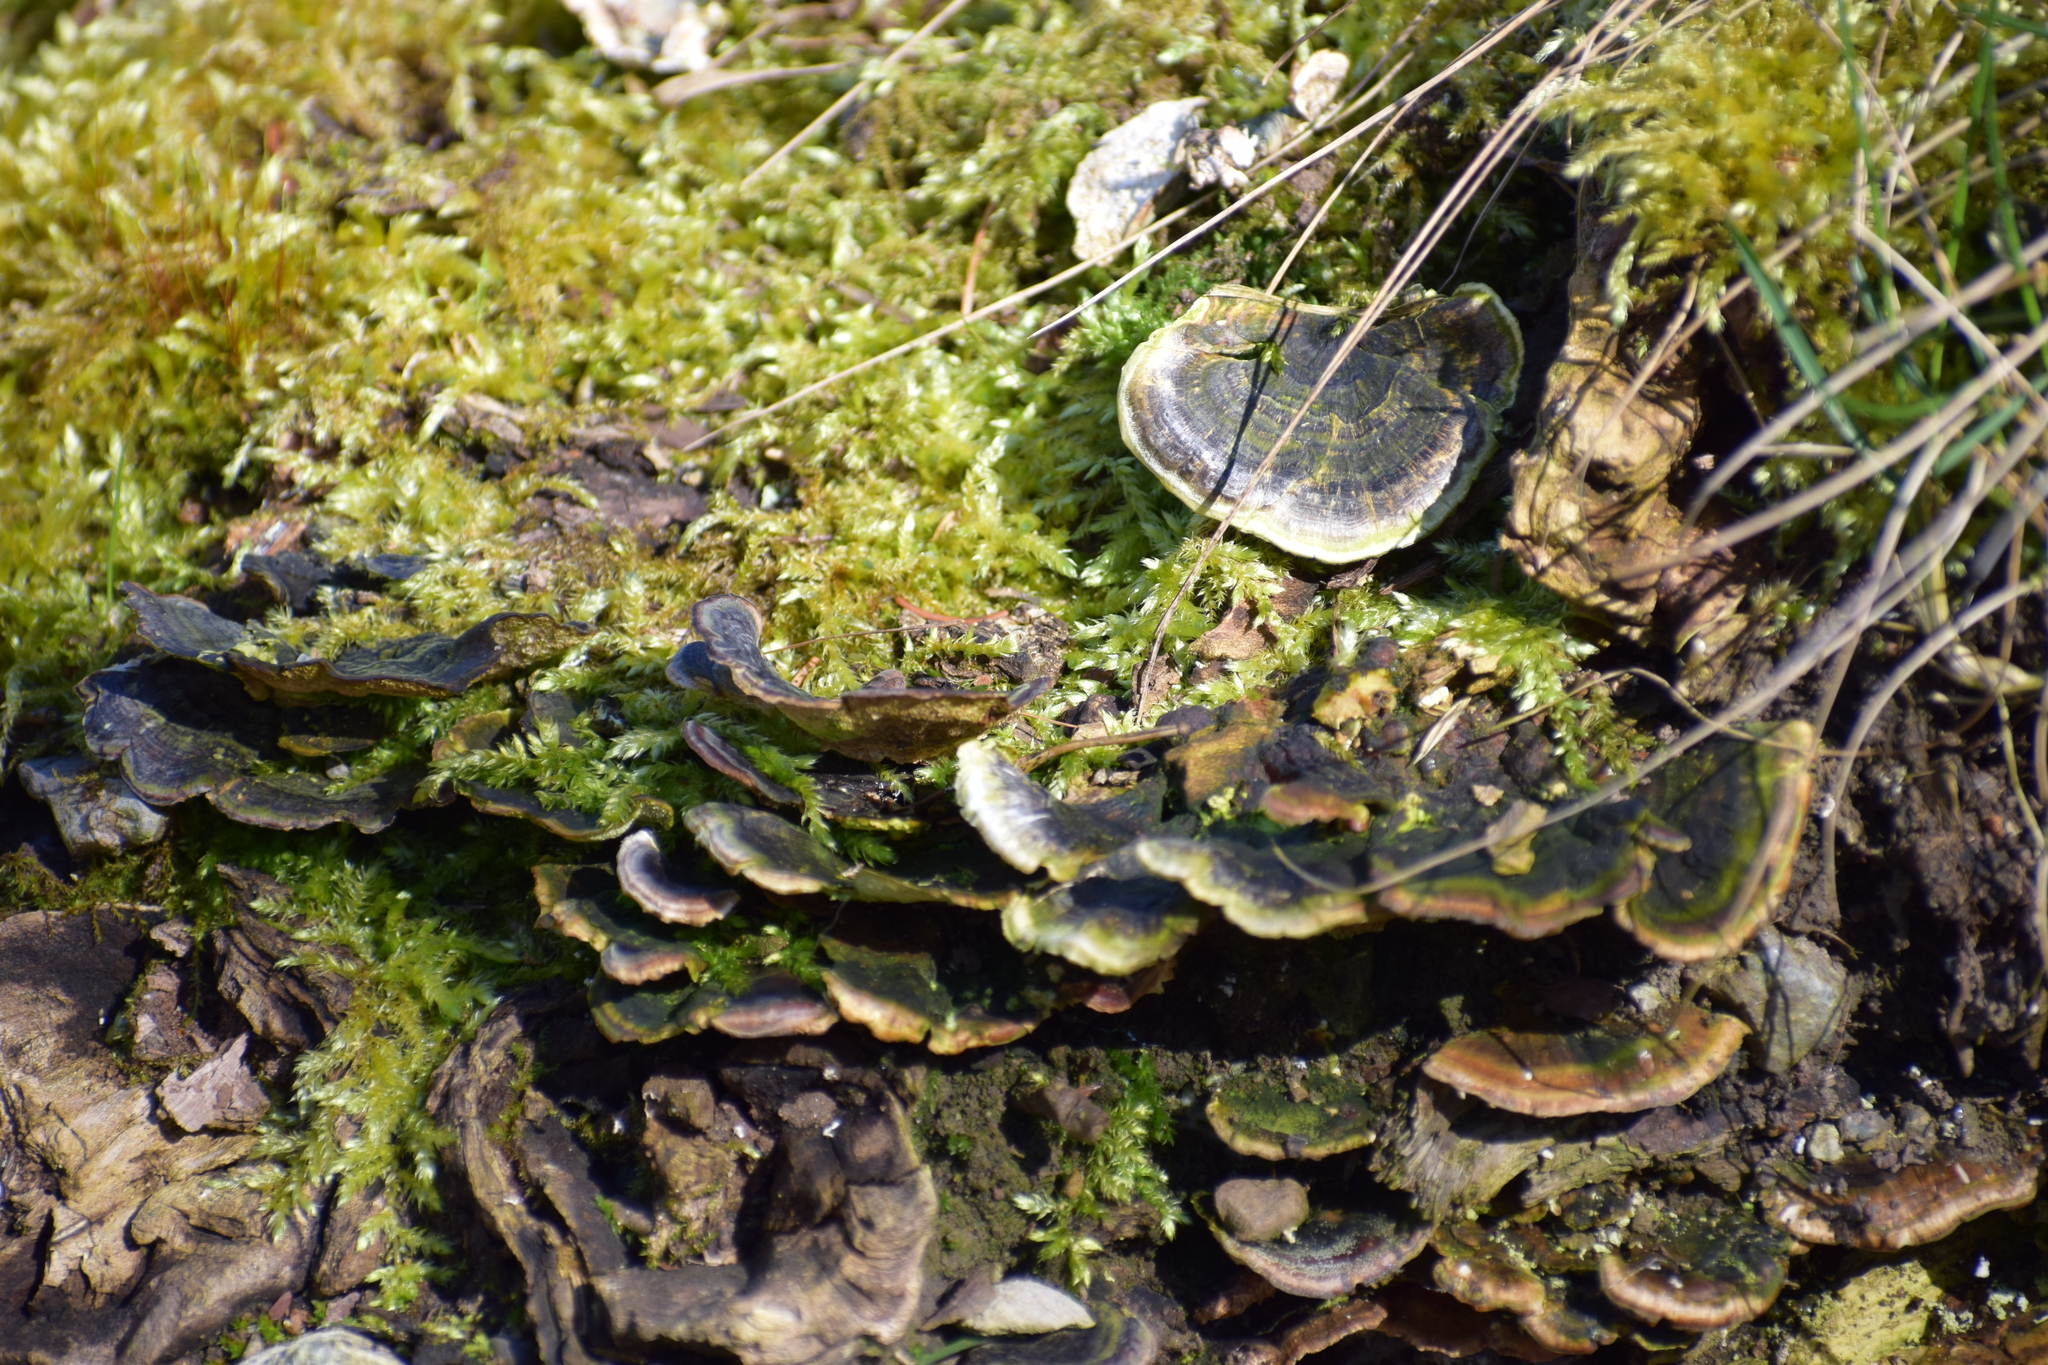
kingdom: Fungi
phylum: Basidiomycota
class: Agaricomycetes
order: Polyporales
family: Polyporaceae
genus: Trametes
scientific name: Trametes versicolor
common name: Turkeytail
